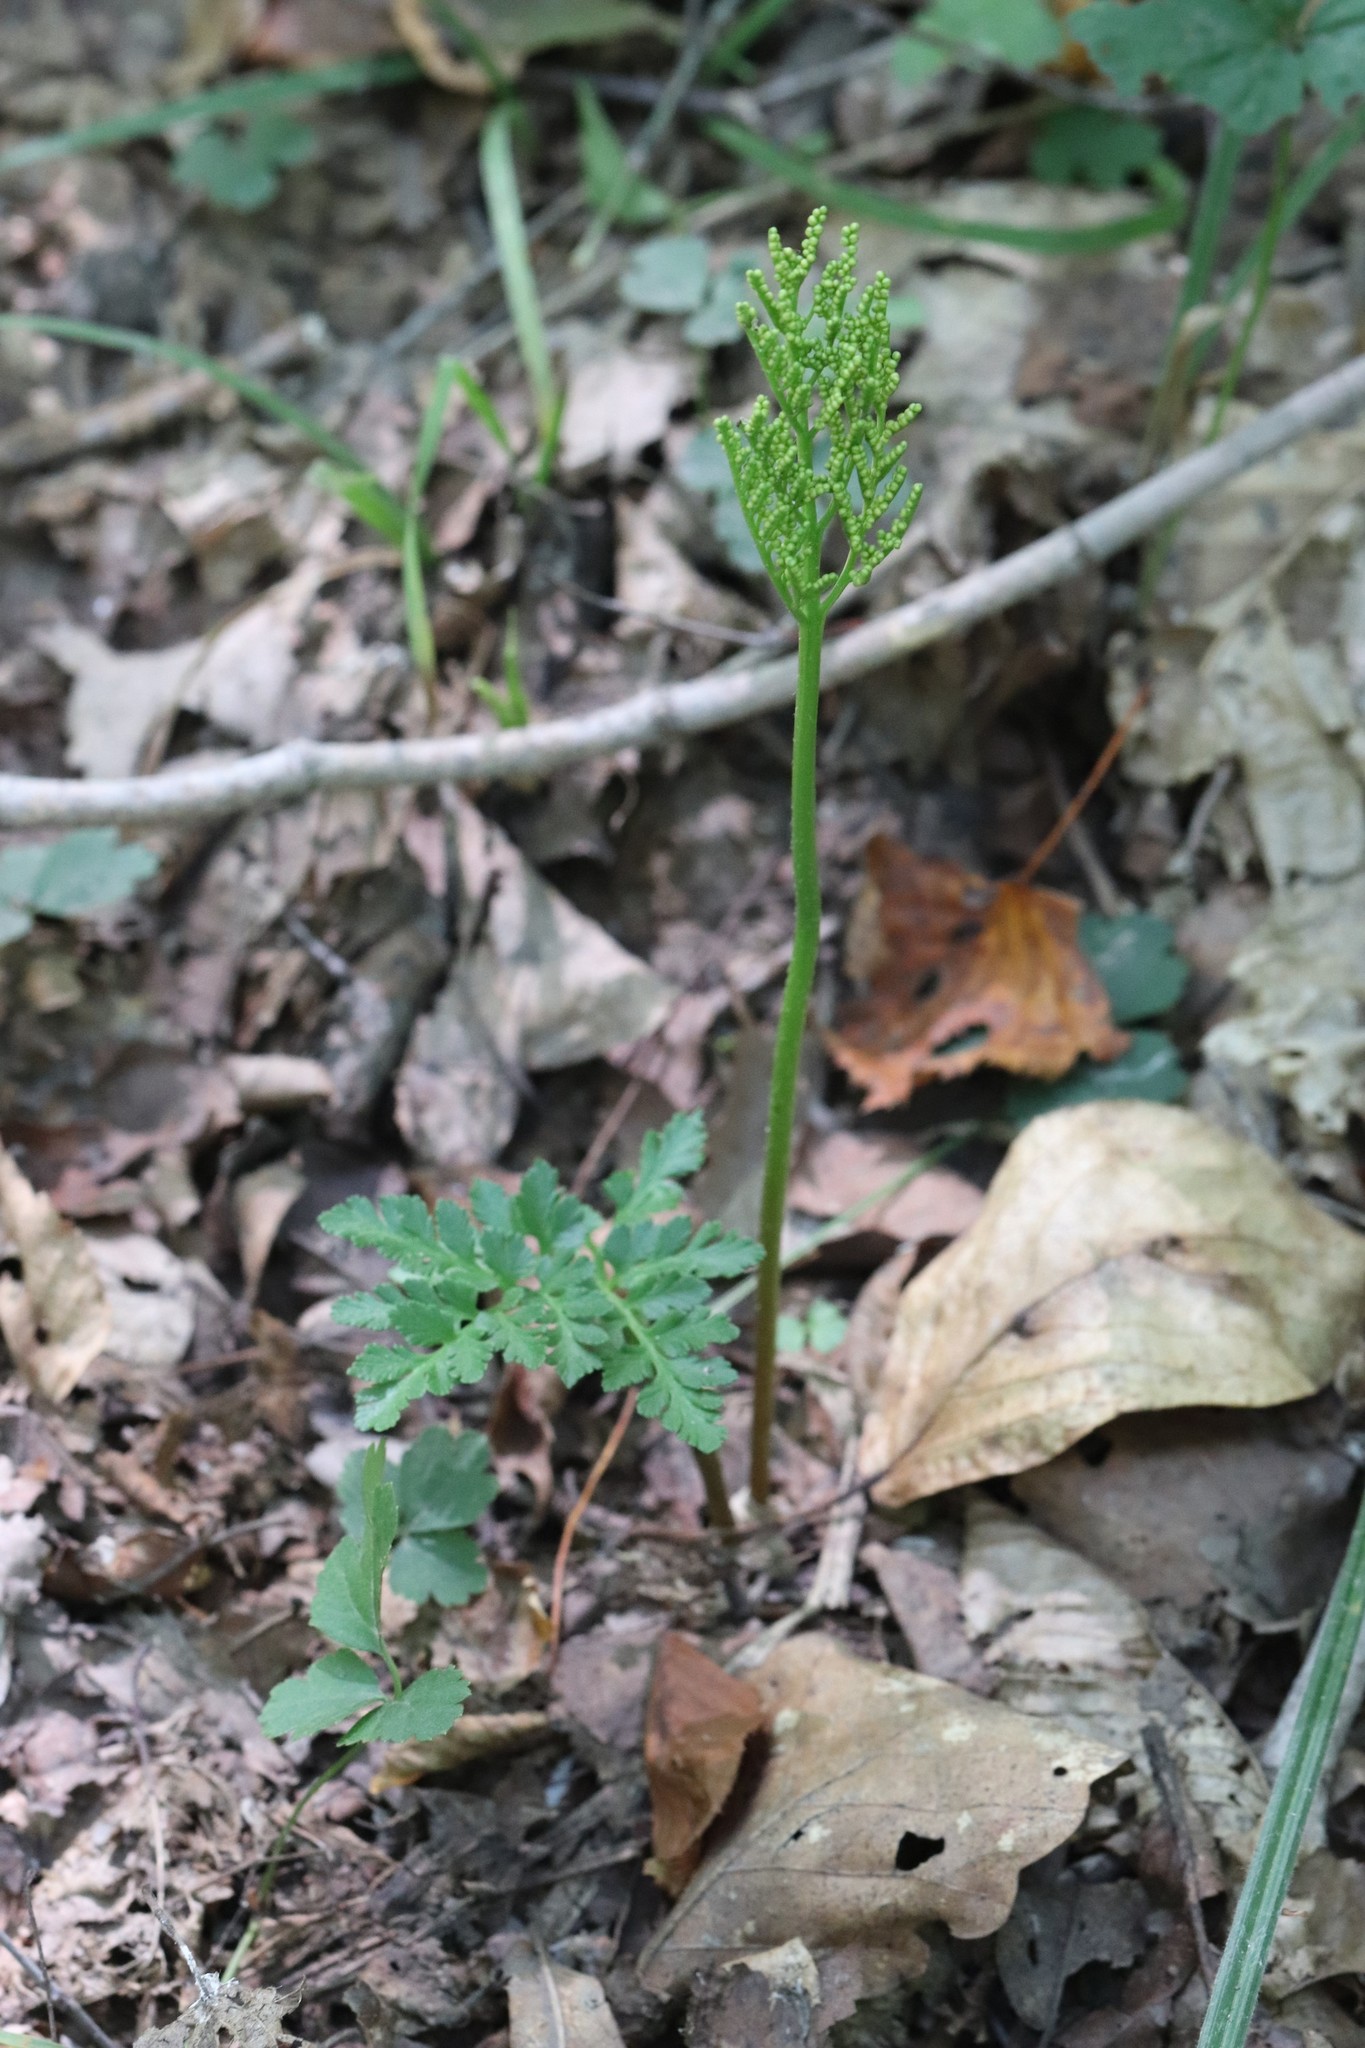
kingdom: Plantae
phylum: Tracheophyta
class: Polypodiopsida
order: Ophioglossales
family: Ophioglossaceae
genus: Sceptridium
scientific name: Sceptridium robustum
